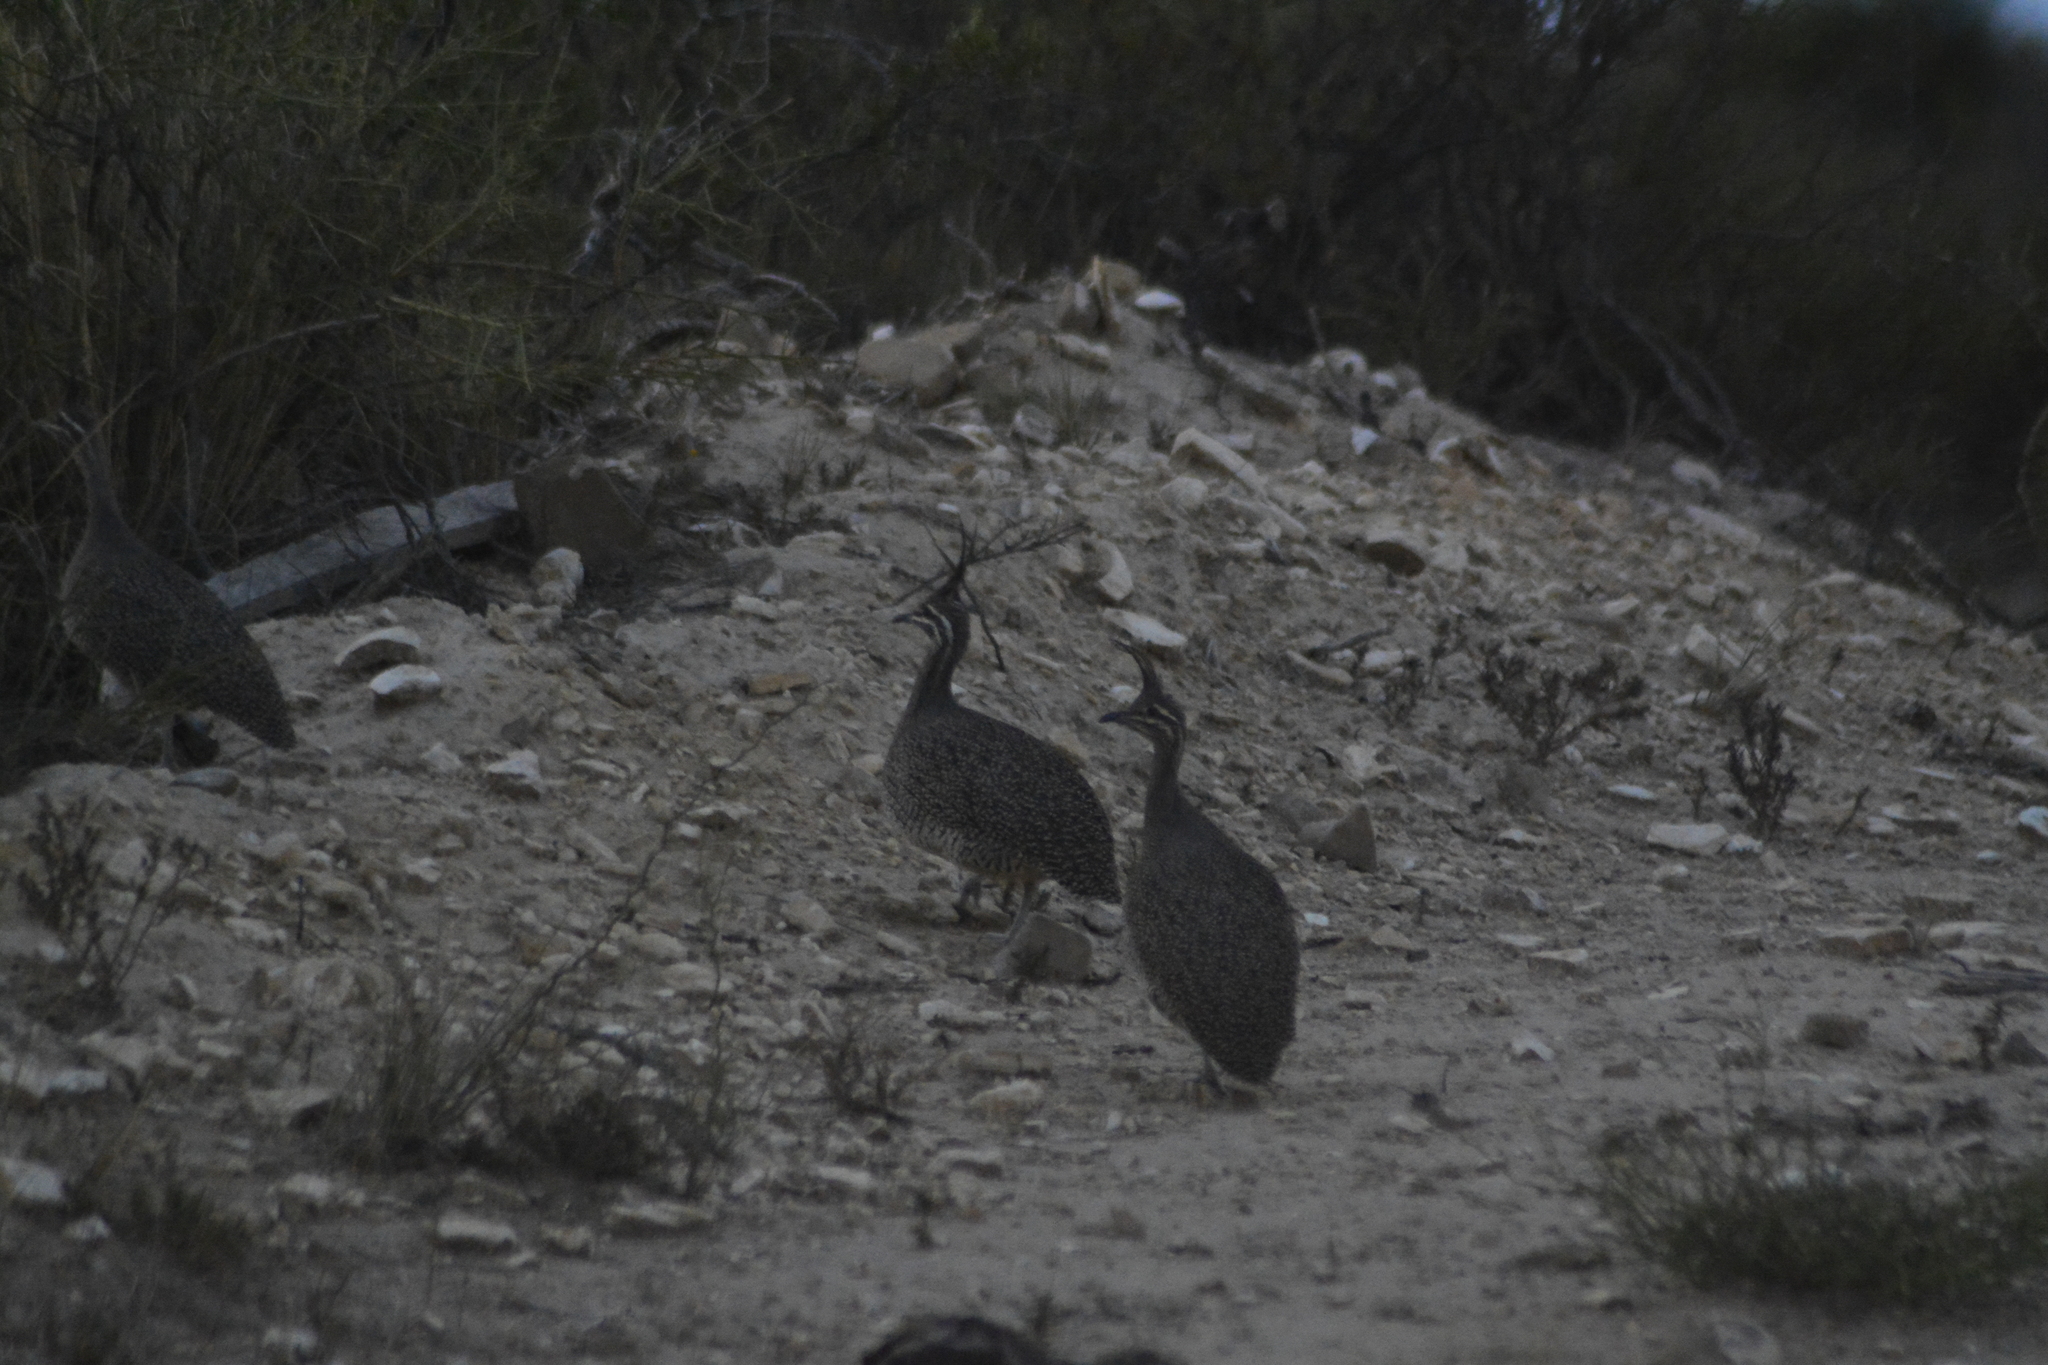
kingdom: Animalia
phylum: Chordata
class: Aves
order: Tinamiformes
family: Tinamidae
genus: Eudromia
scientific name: Eudromia elegans
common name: Elegant crested tinamou
